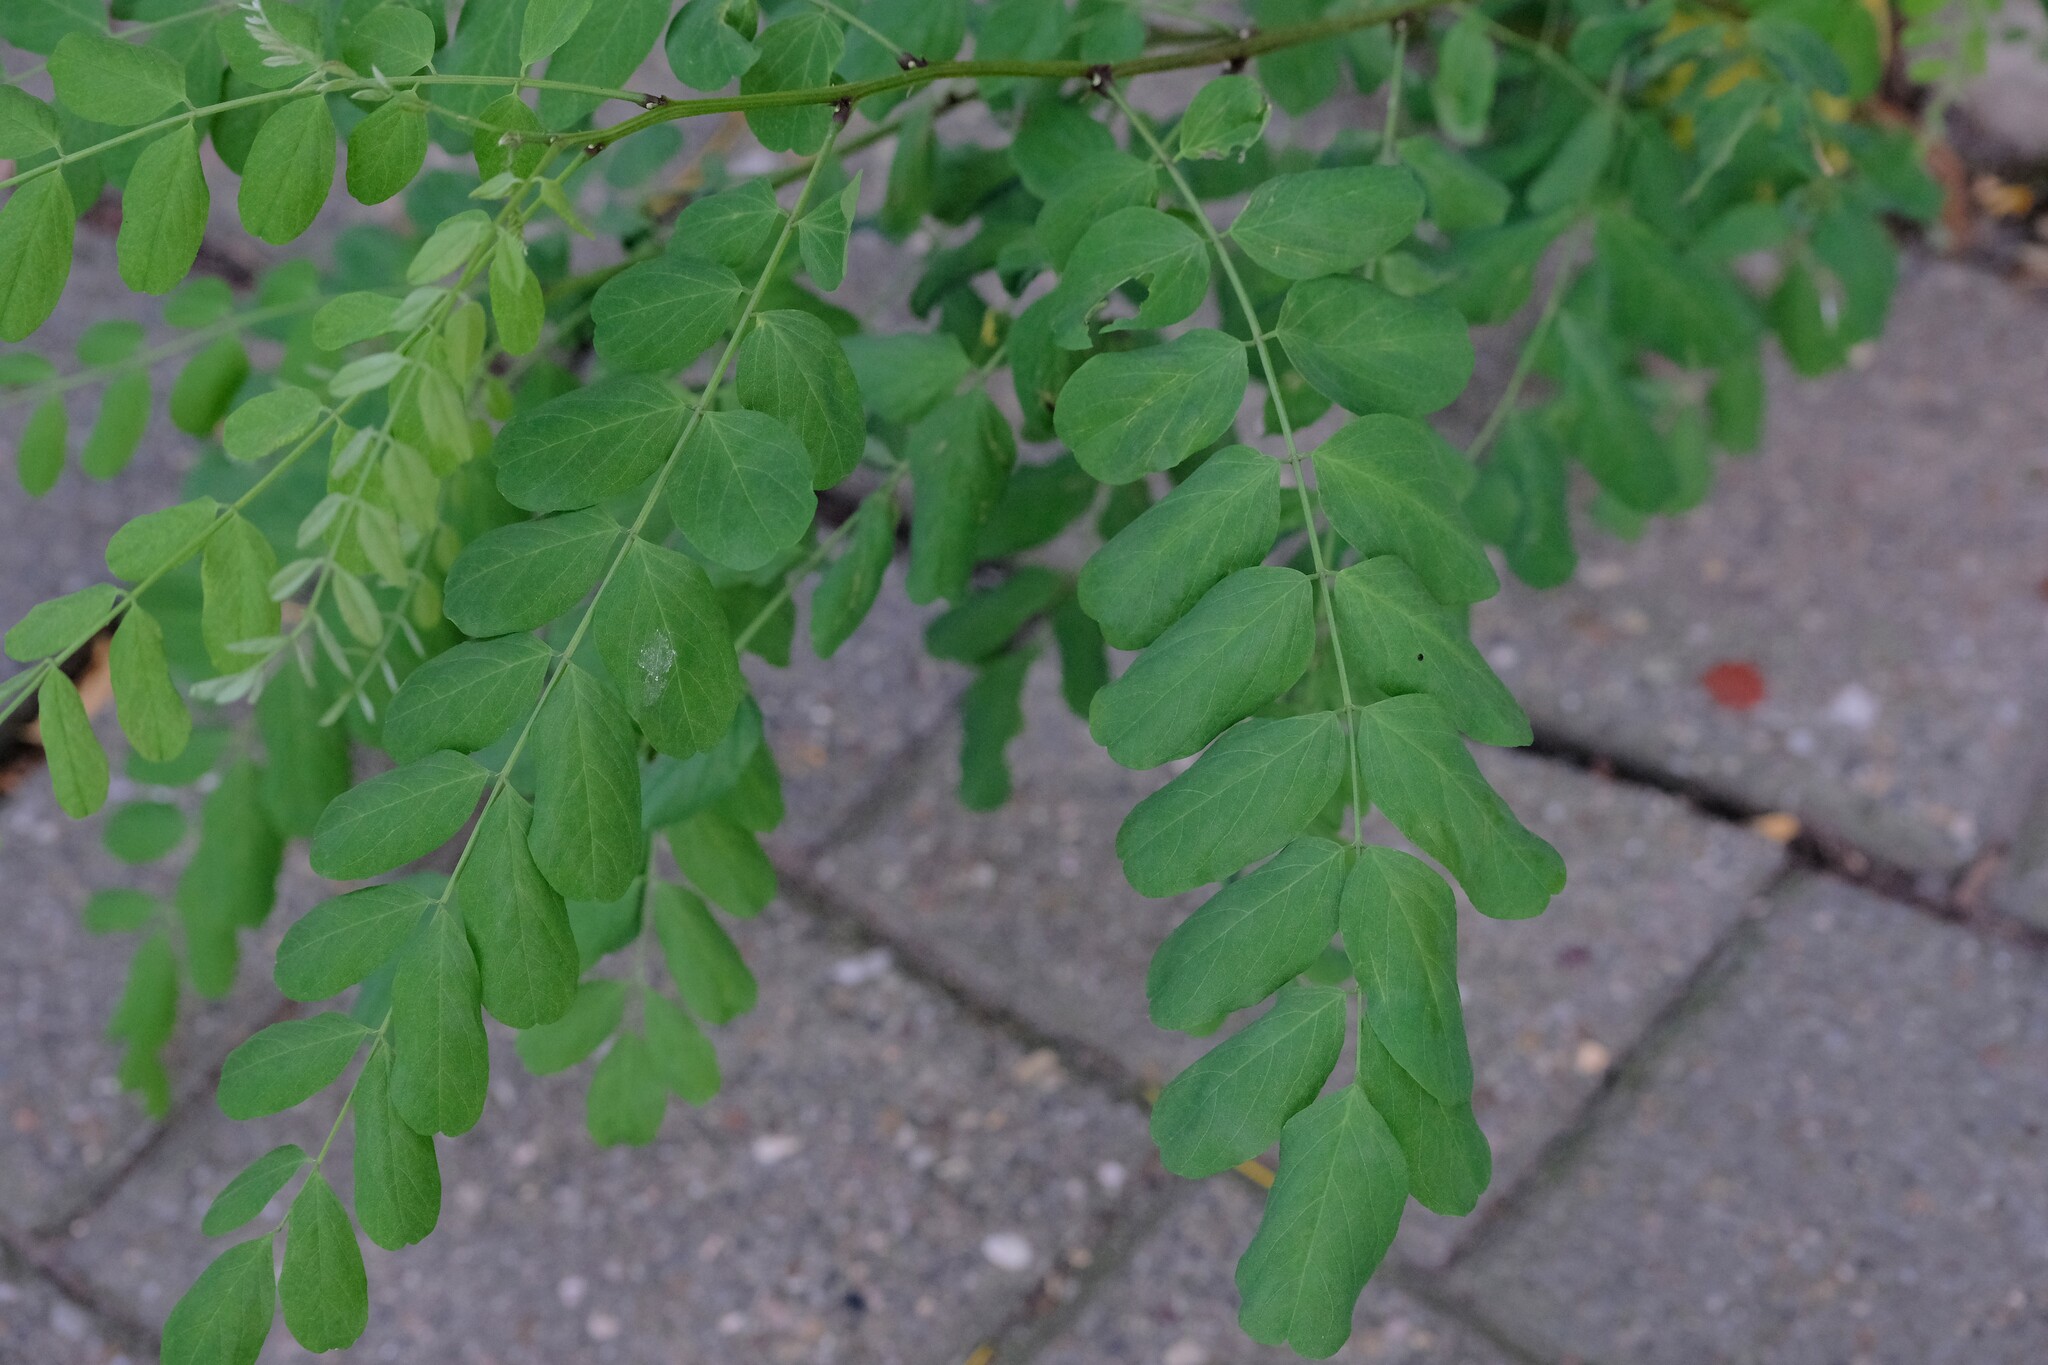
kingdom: Plantae
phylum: Tracheophyta
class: Magnoliopsida
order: Fabales
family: Fabaceae
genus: Robinia
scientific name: Robinia pseudoacacia
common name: Black locust
